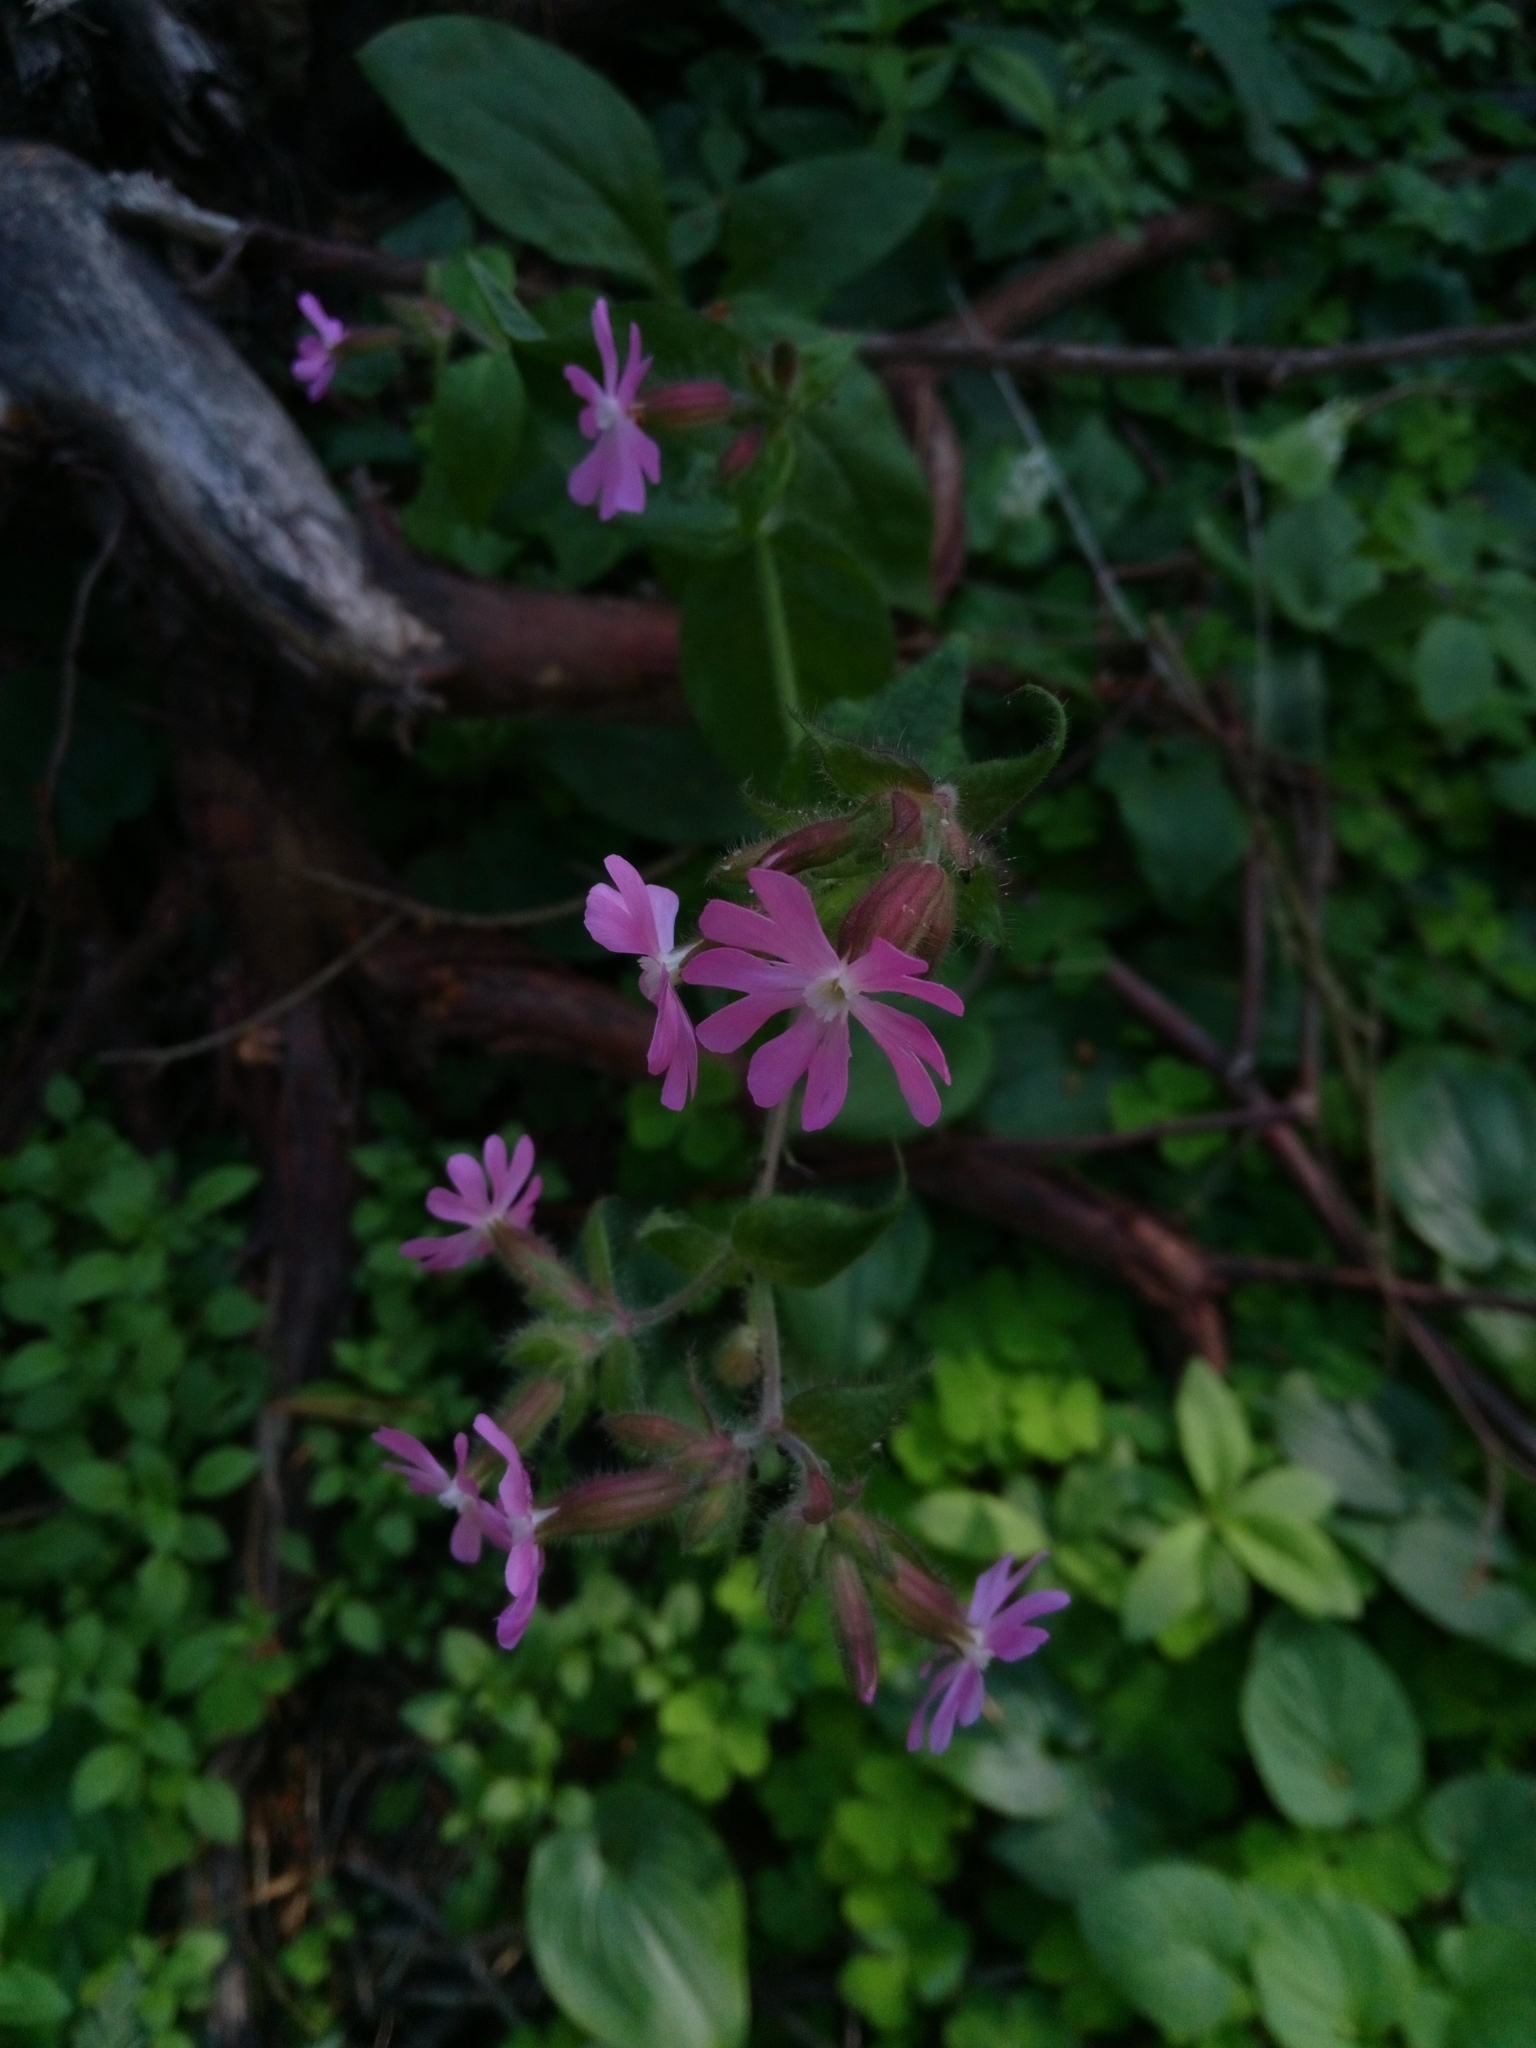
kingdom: Plantae
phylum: Tracheophyta
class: Magnoliopsida
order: Caryophyllales
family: Caryophyllaceae
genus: Silene
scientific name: Silene dioica
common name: Red campion
